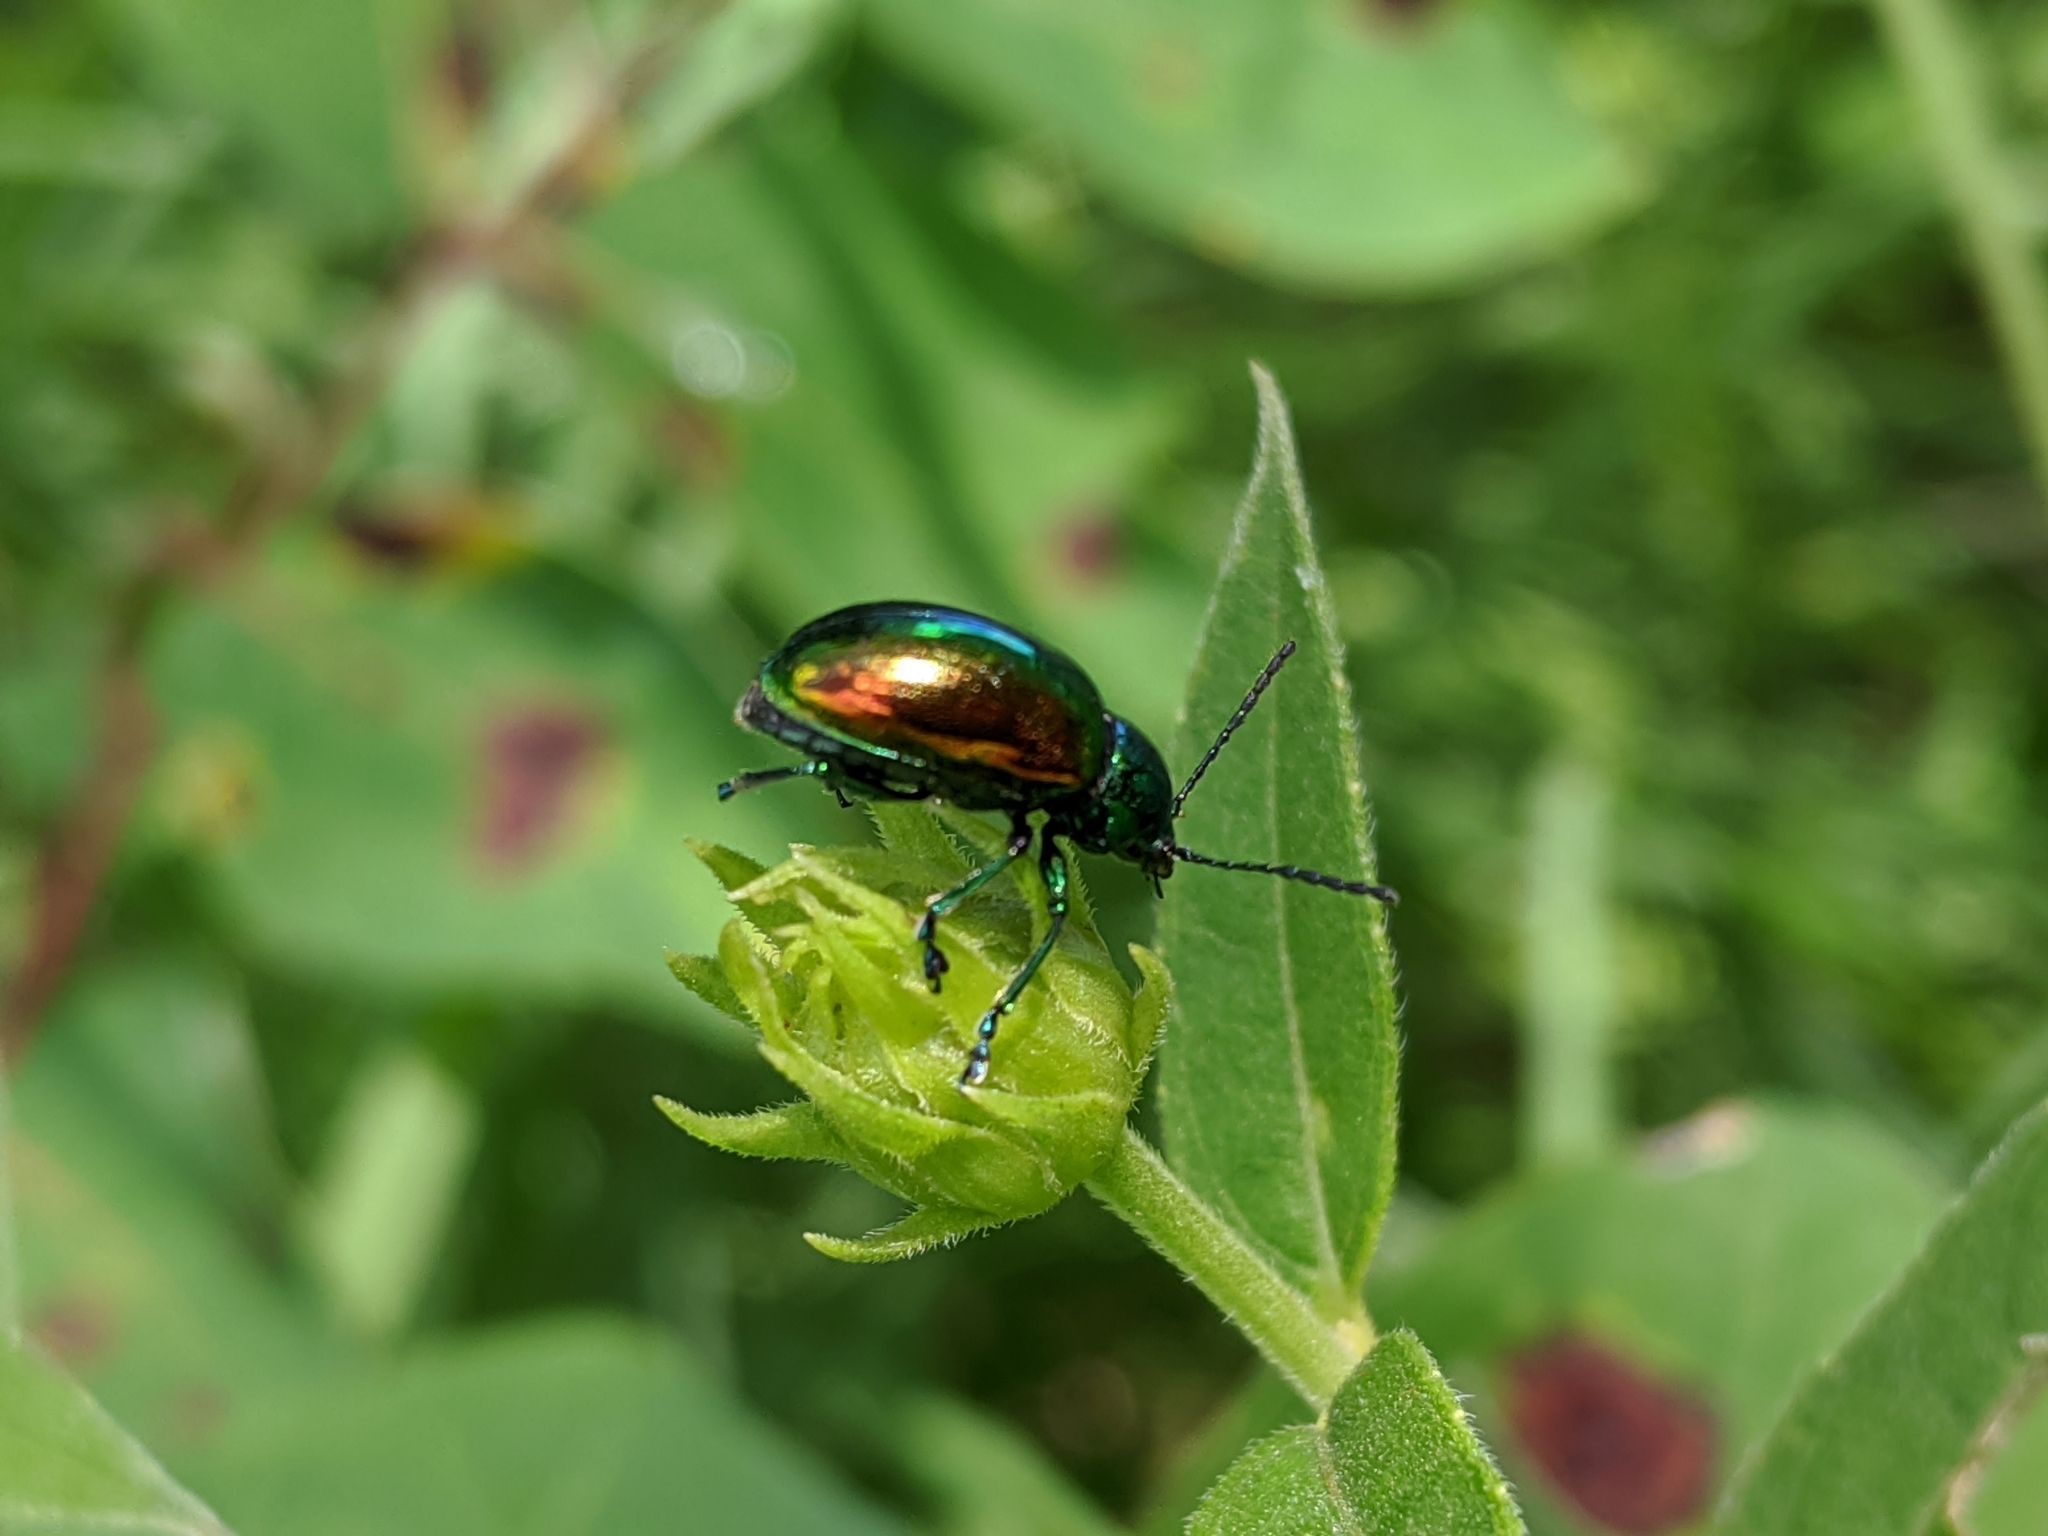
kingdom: Animalia
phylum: Arthropoda
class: Insecta
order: Coleoptera
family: Chrysomelidae
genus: Chrysochus
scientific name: Chrysochus auratus
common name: Dogbane leaf beetle
